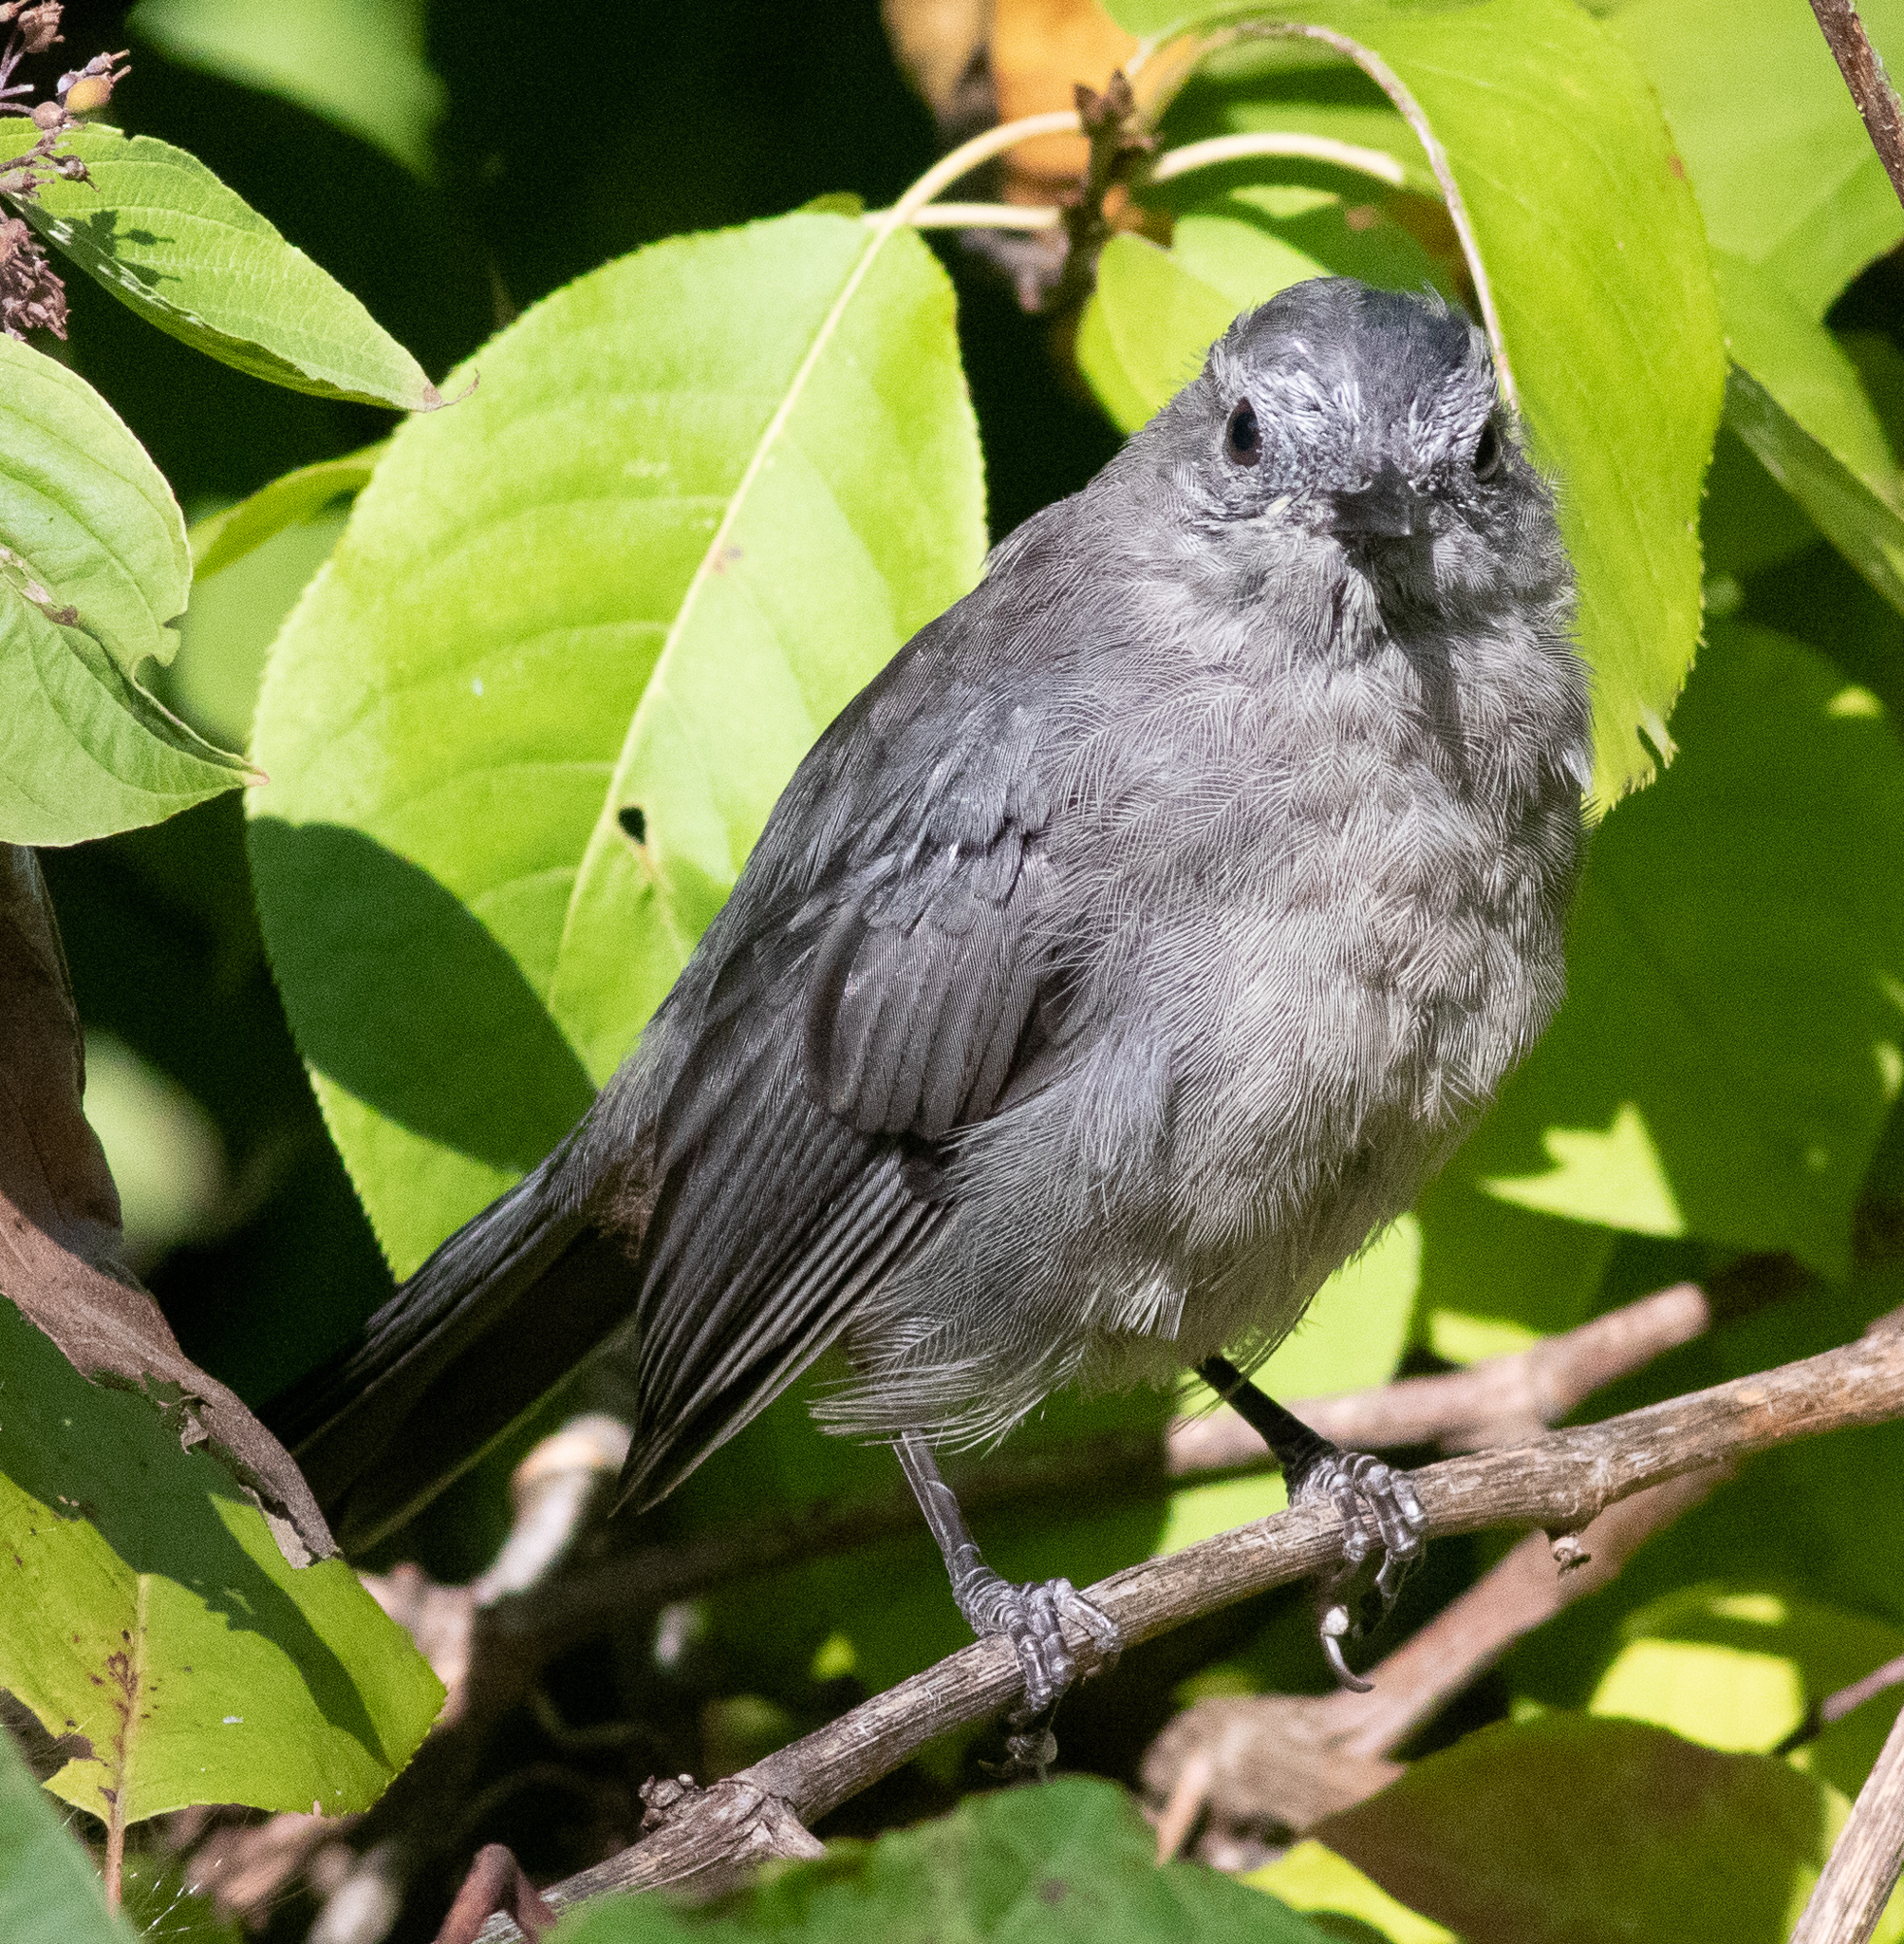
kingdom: Animalia
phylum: Chordata
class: Aves
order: Passeriformes
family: Mimidae
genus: Dumetella
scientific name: Dumetella carolinensis
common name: Gray catbird
